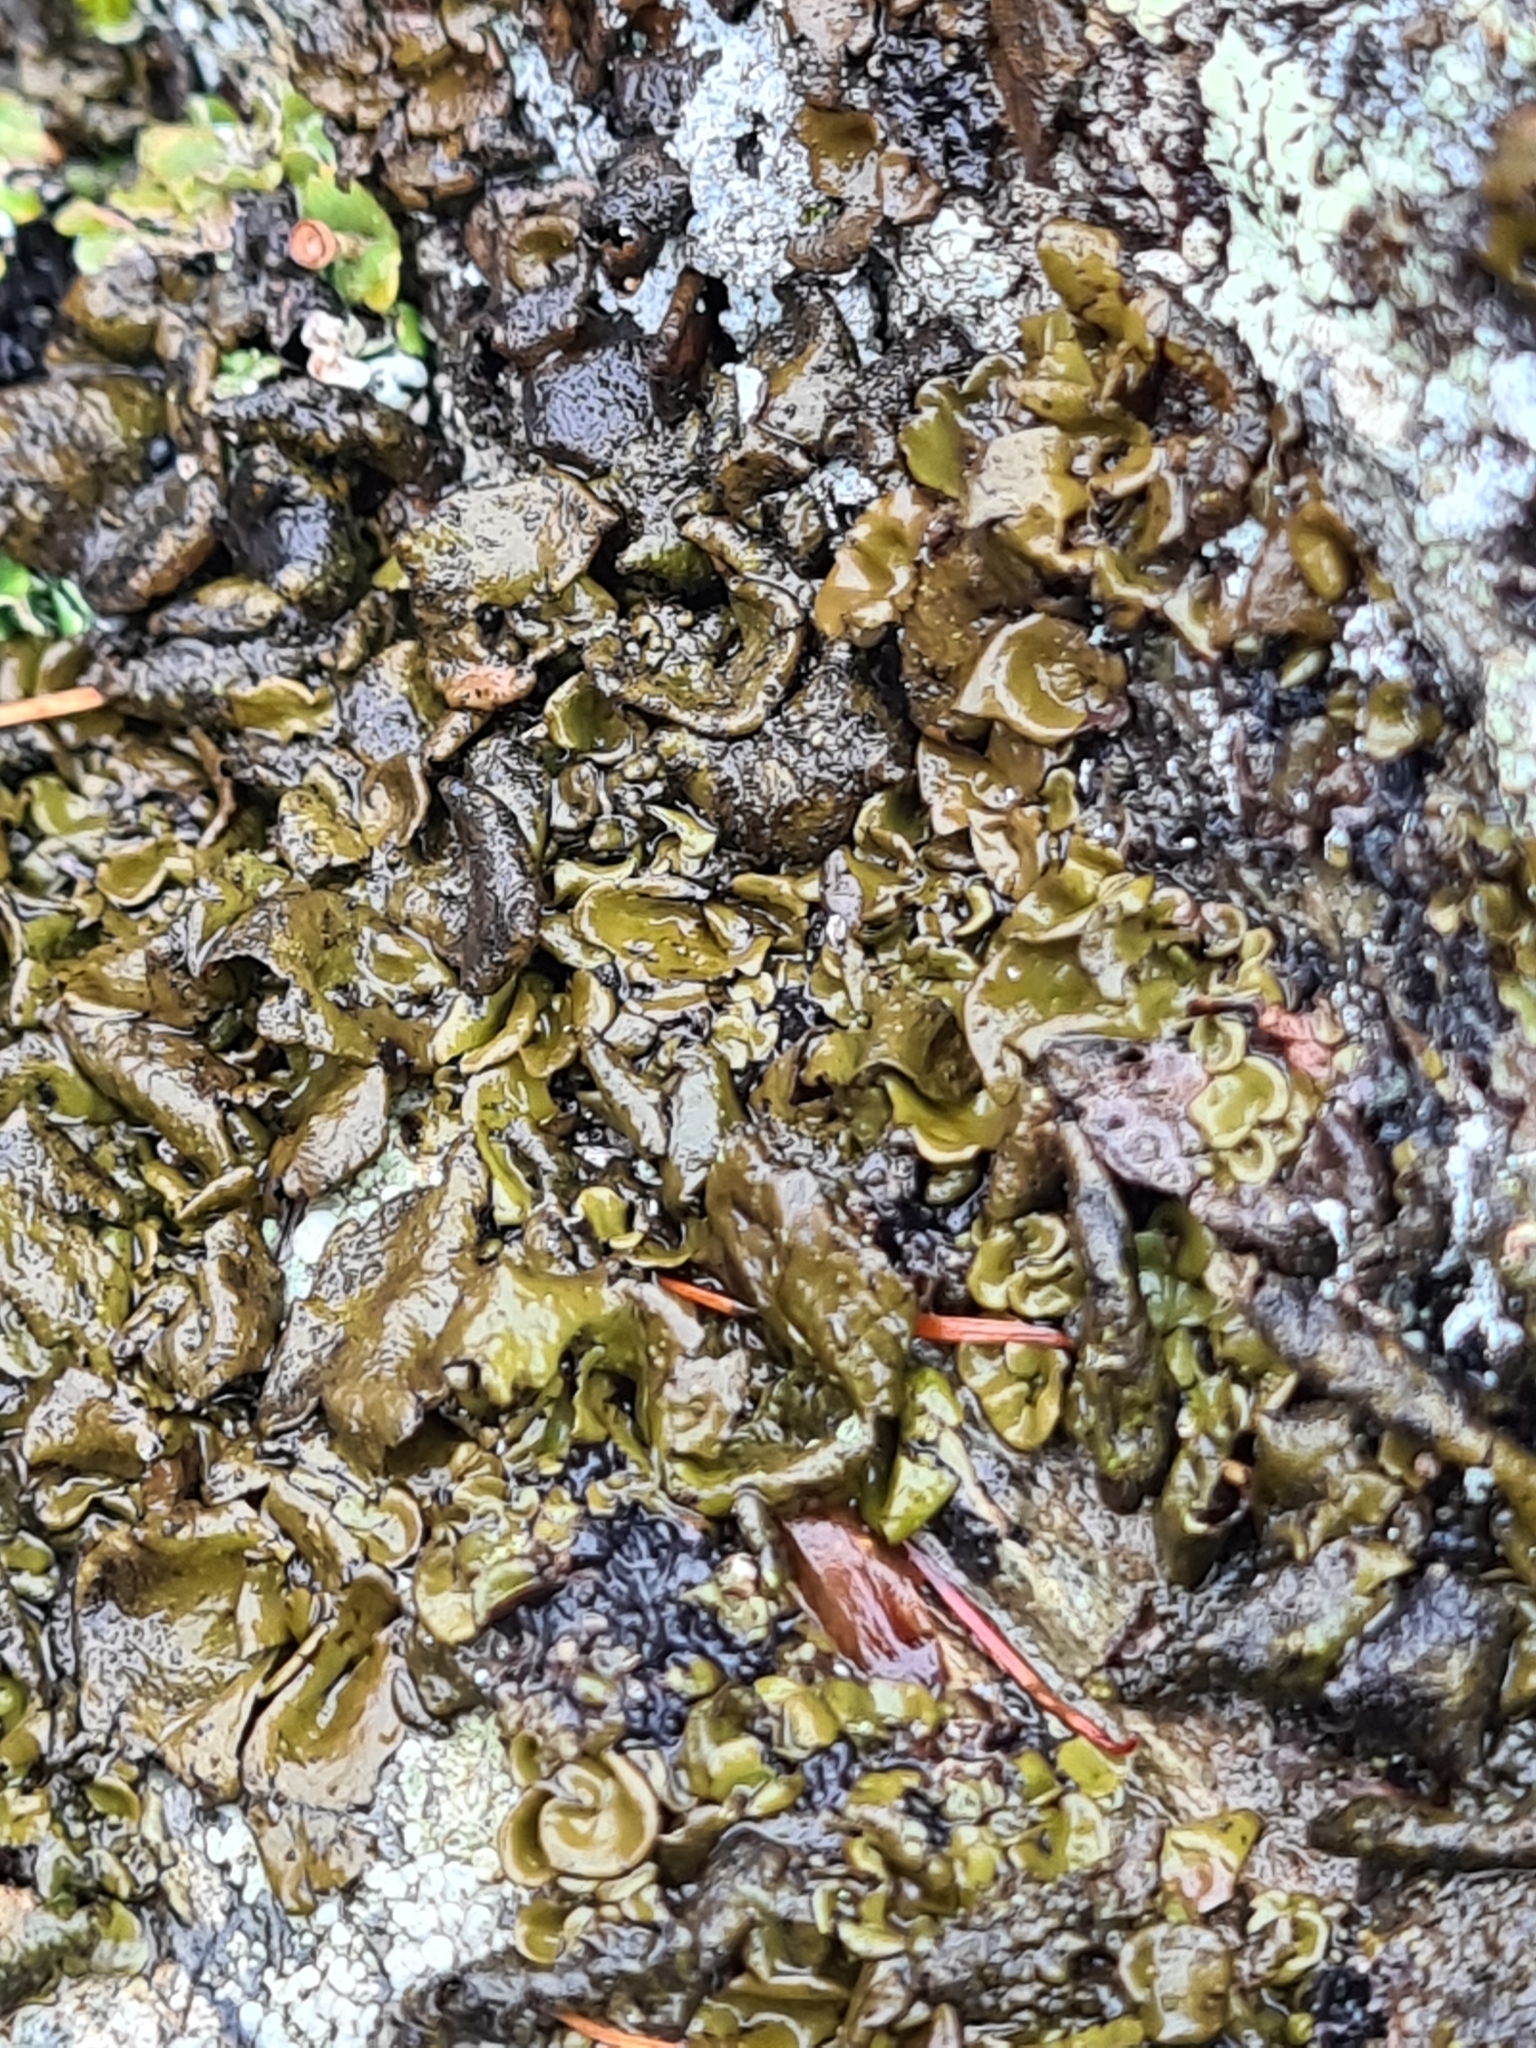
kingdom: Bacteria
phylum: Cyanobacteria
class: Cyanobacteriia
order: Cyanobacteriales
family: Nostocaceae
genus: Nostoc
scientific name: Nostoc commune
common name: Star jelly
